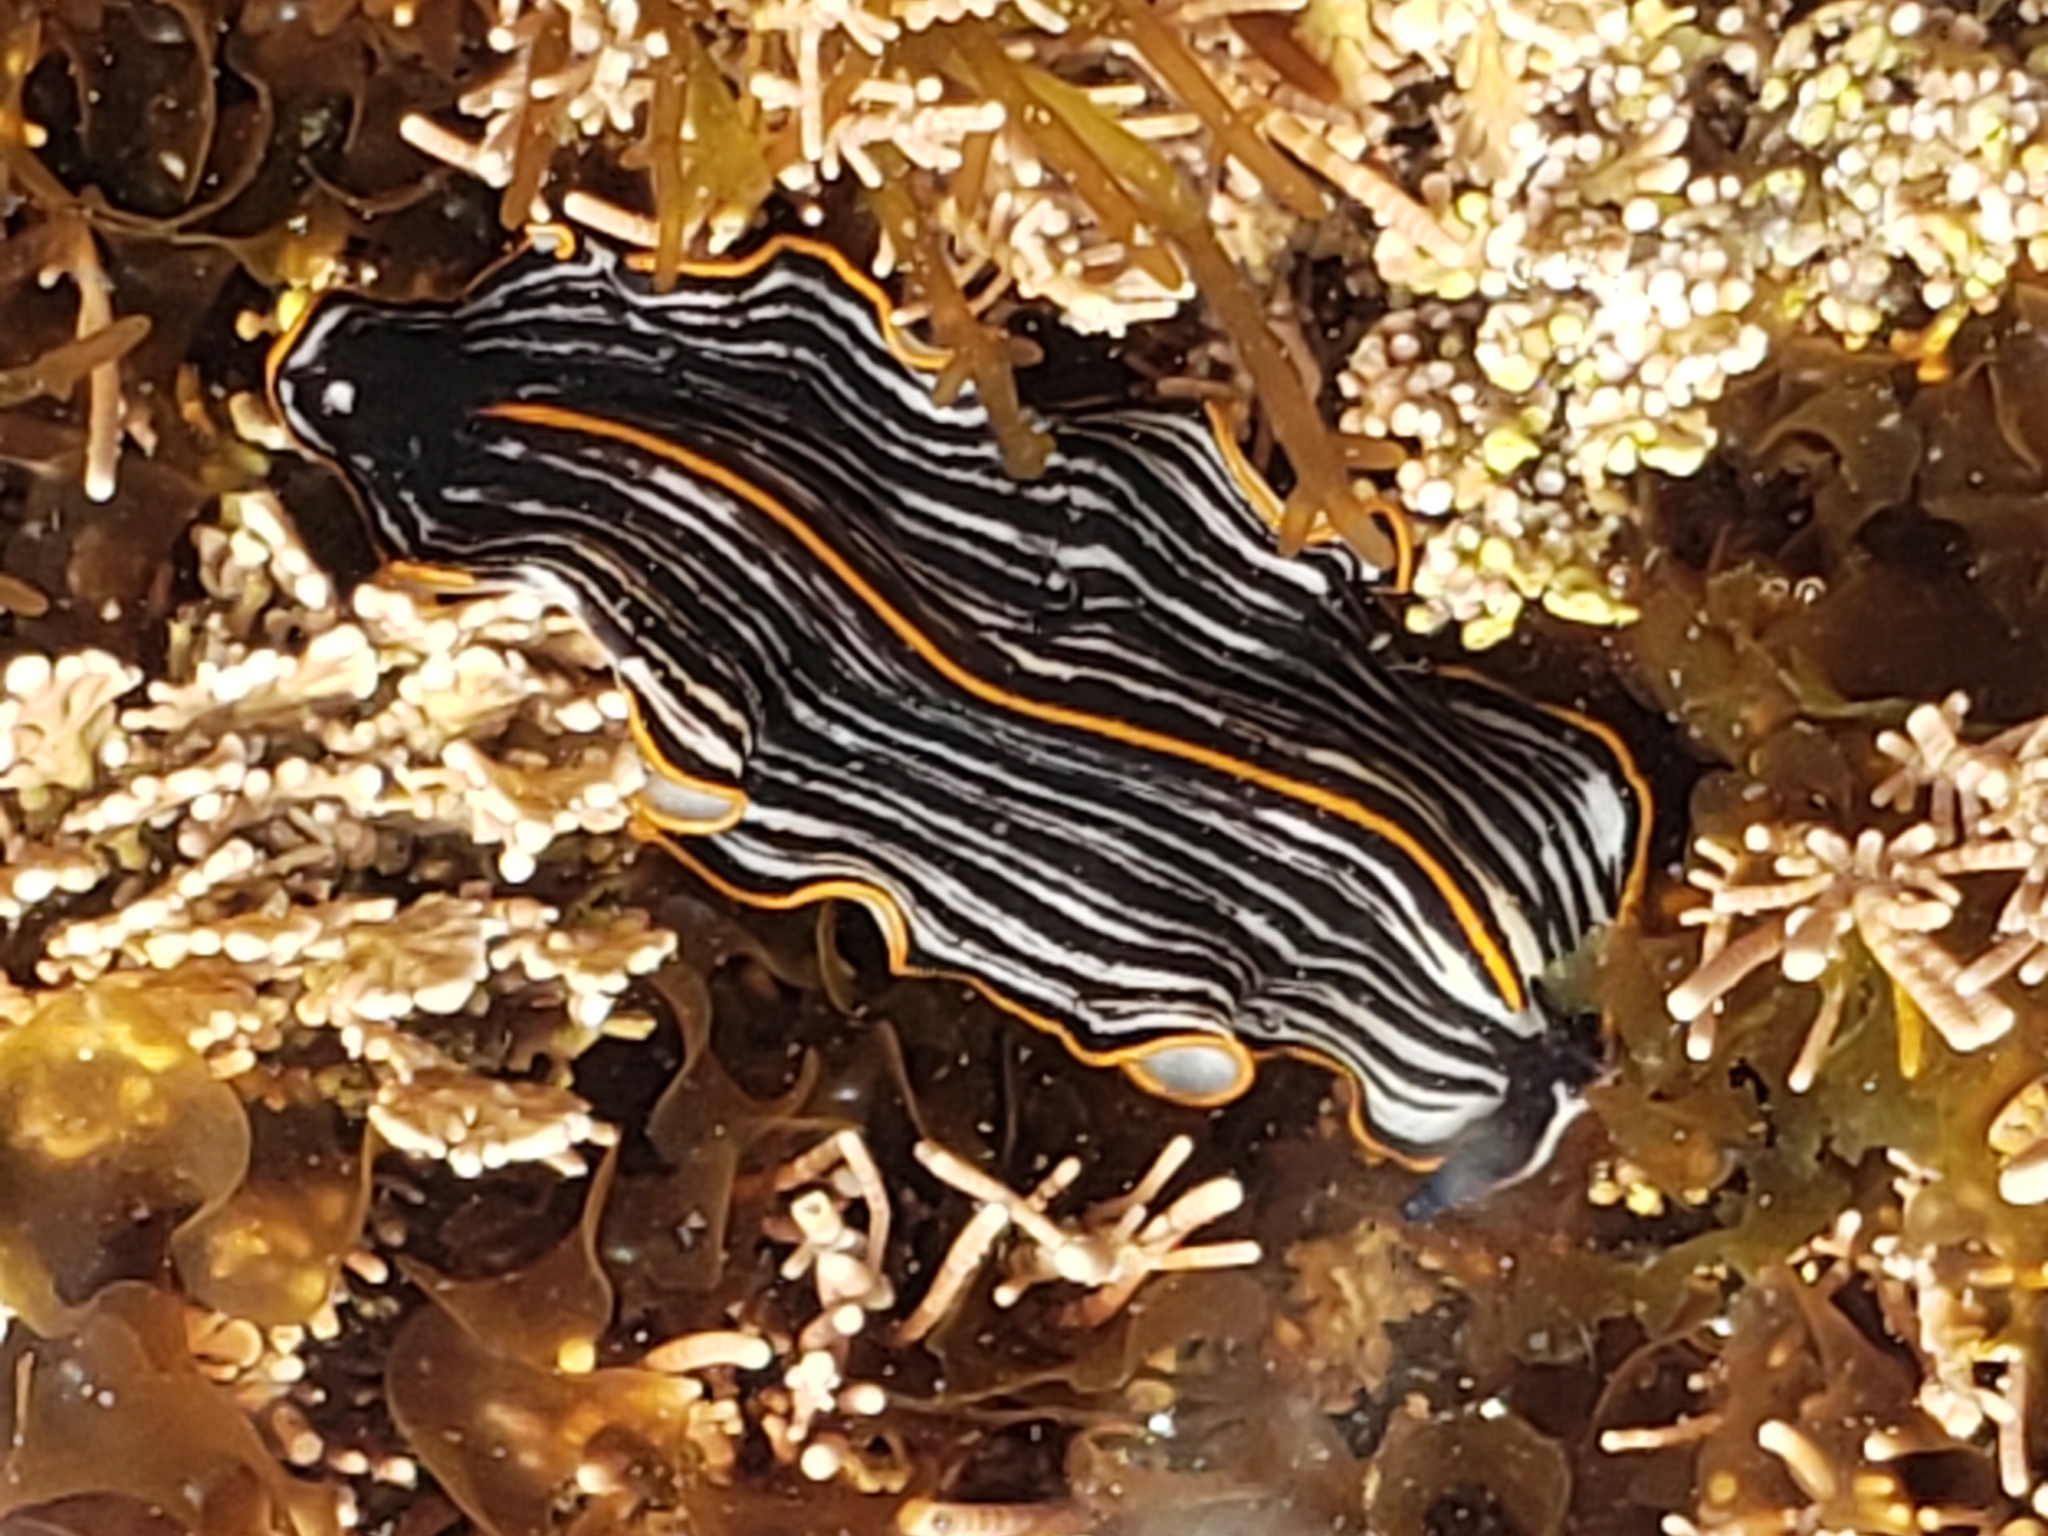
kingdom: Animalia
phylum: Platyhelminthes
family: Euryleptidae
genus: Praestheceraeus
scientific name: Praestheceraeus bellostriatus
